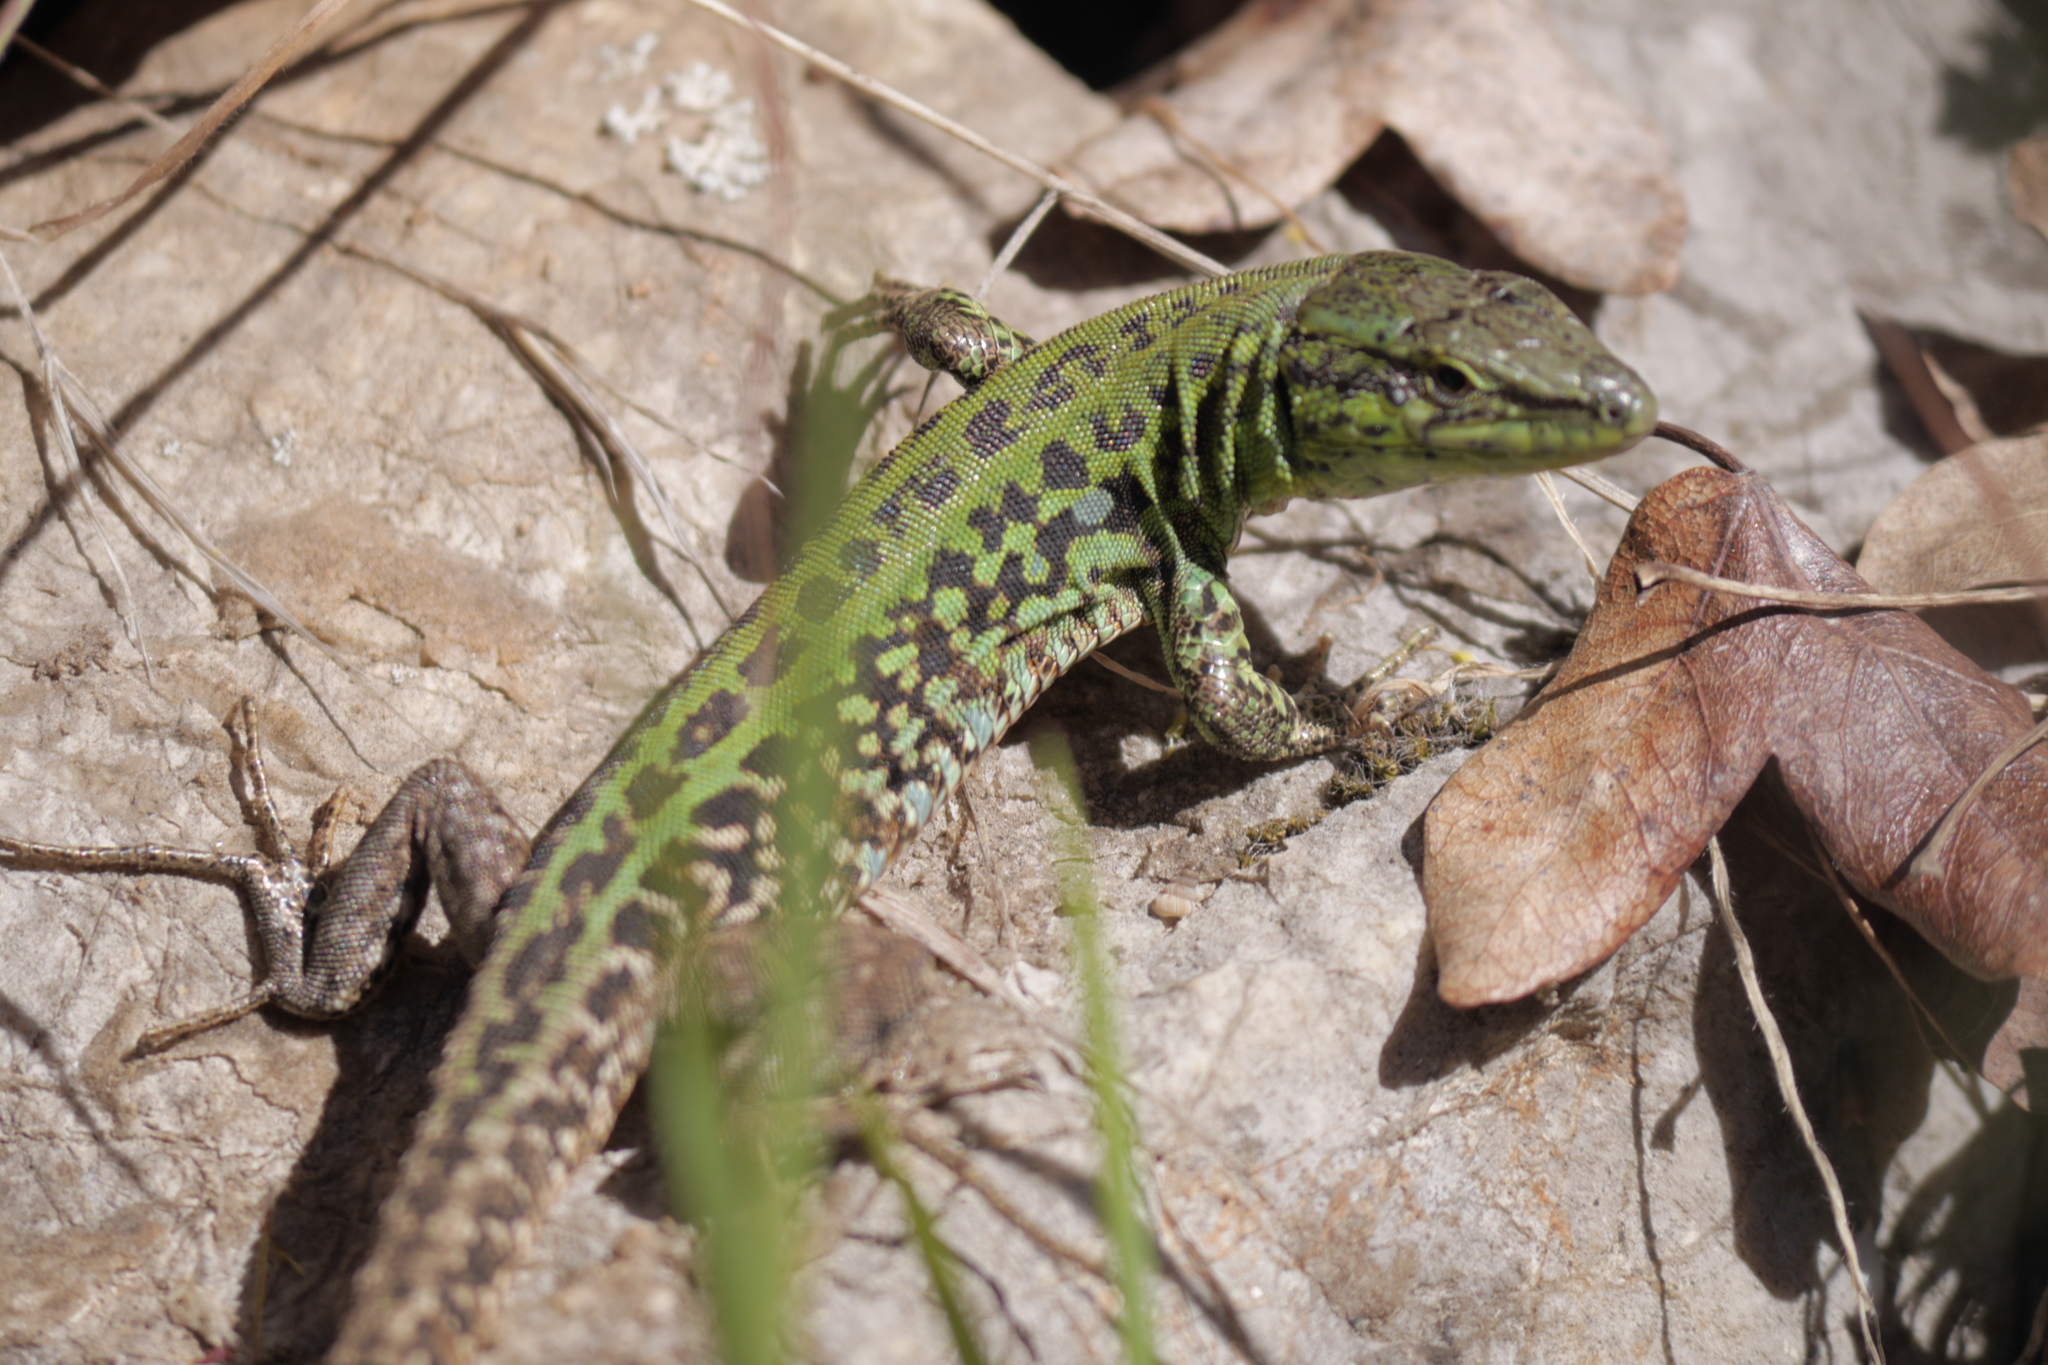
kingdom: Animalia
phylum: Chordata
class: Squamata
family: Lacertidae
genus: Podarcis
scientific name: Podarcis siculus
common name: Italian wall lizard
